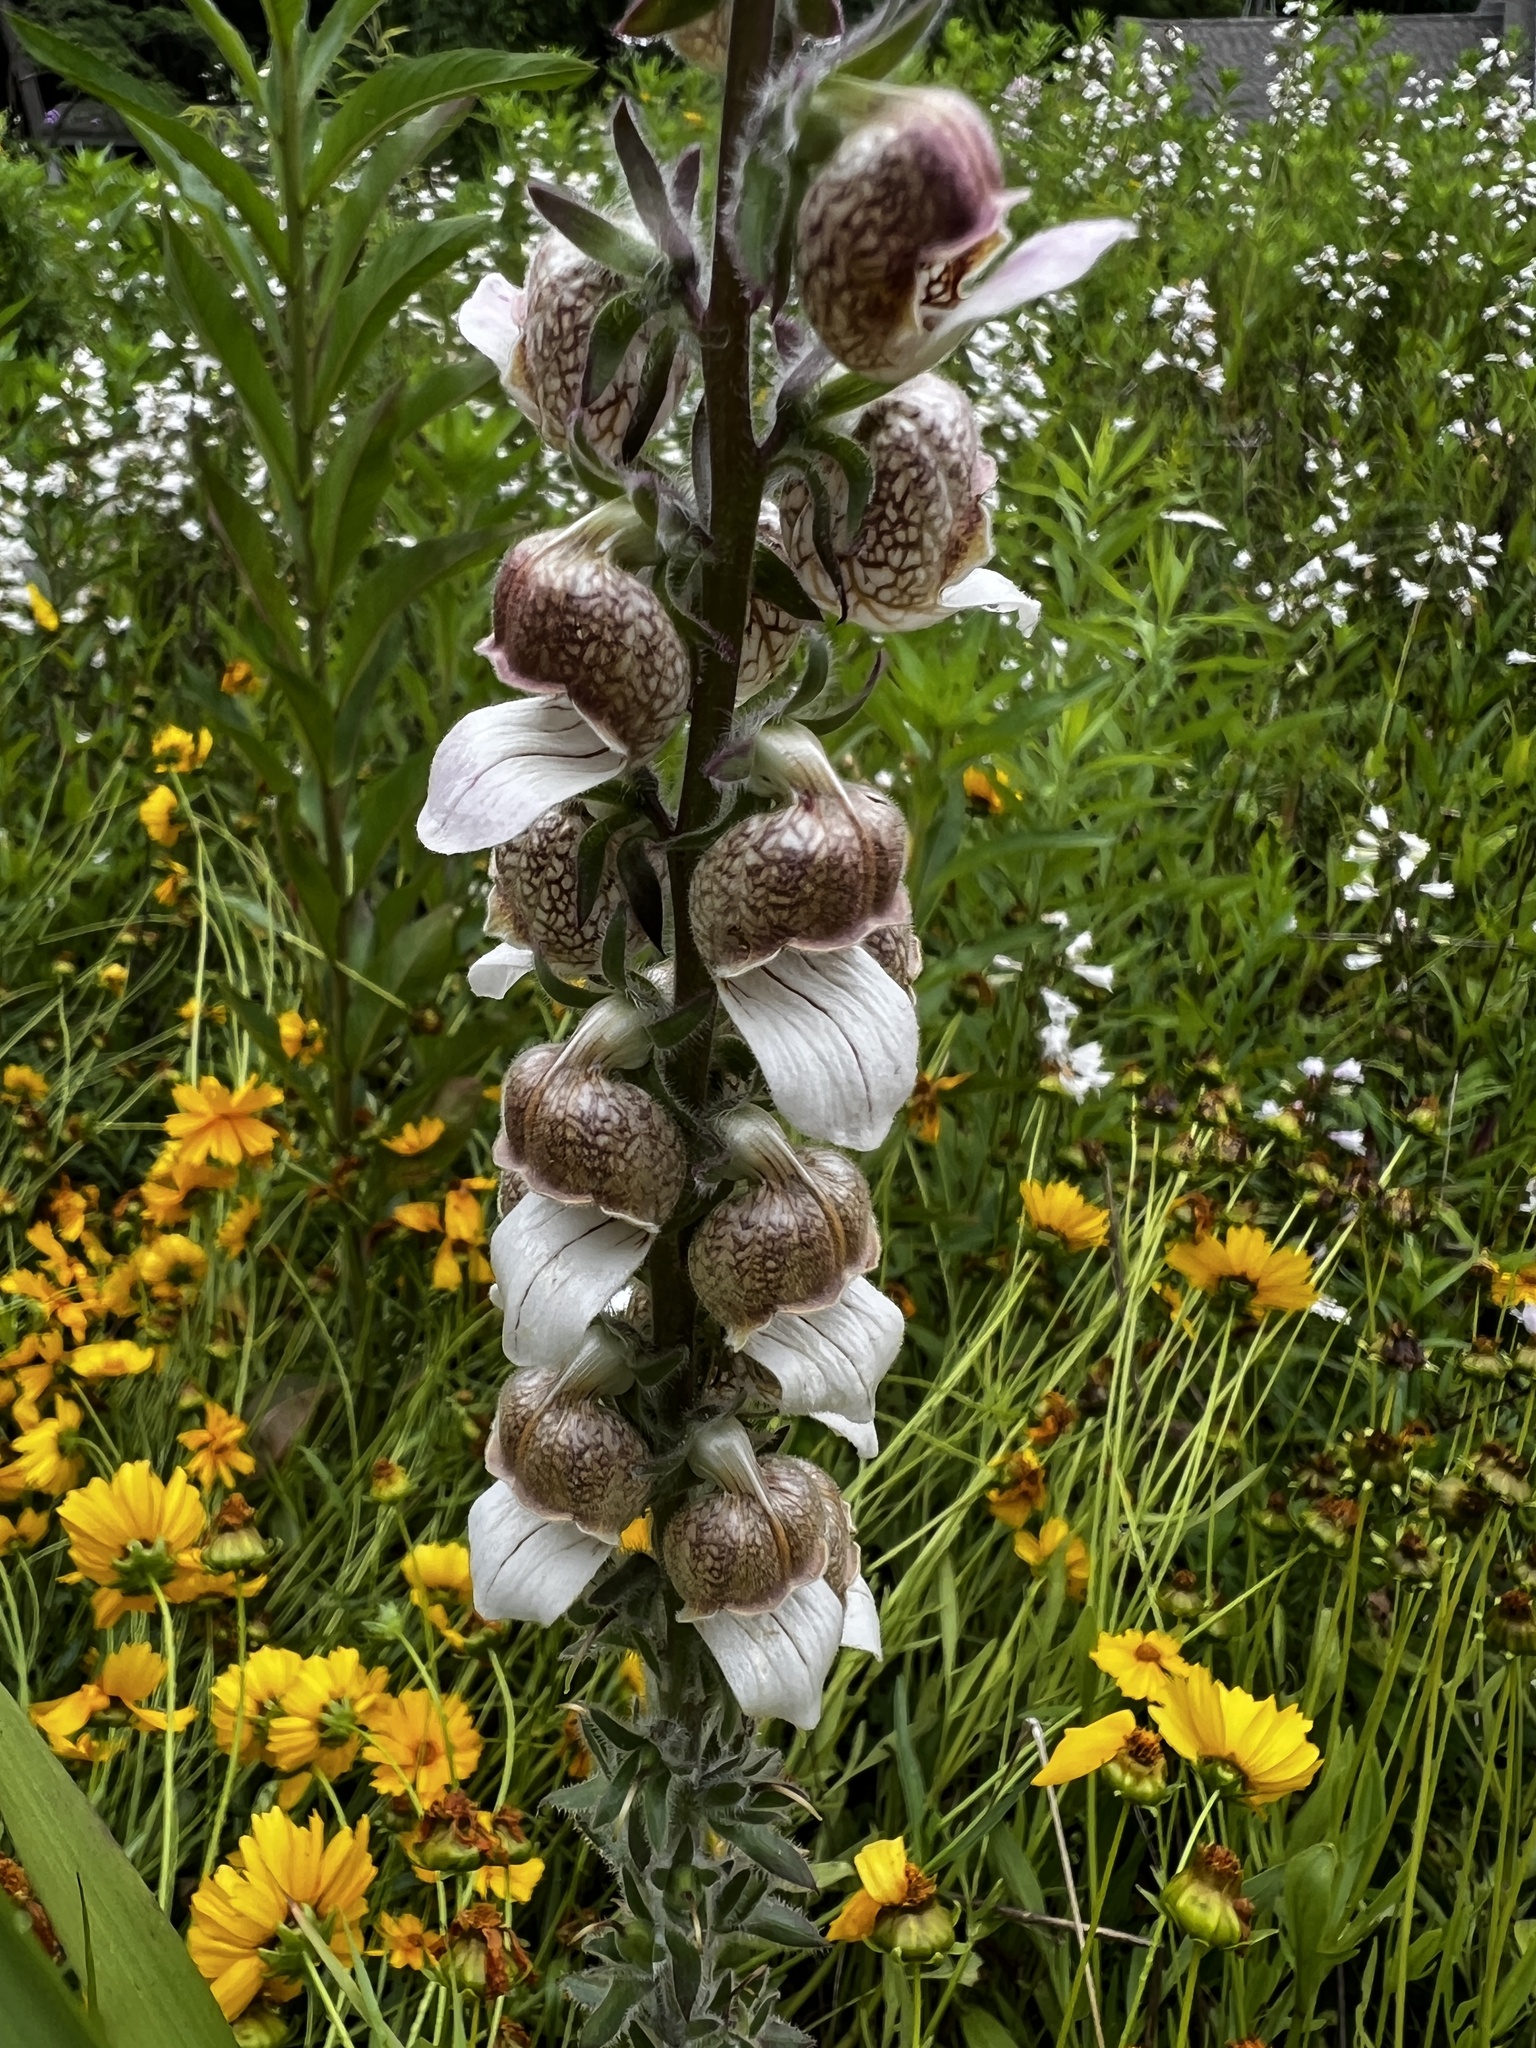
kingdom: Plantae
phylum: Tracheophyta
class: Magnoliopsida
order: Lamiales
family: Plantaginaceae
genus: Digitalis
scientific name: Digitalis lanata
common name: Grecian foxglove
